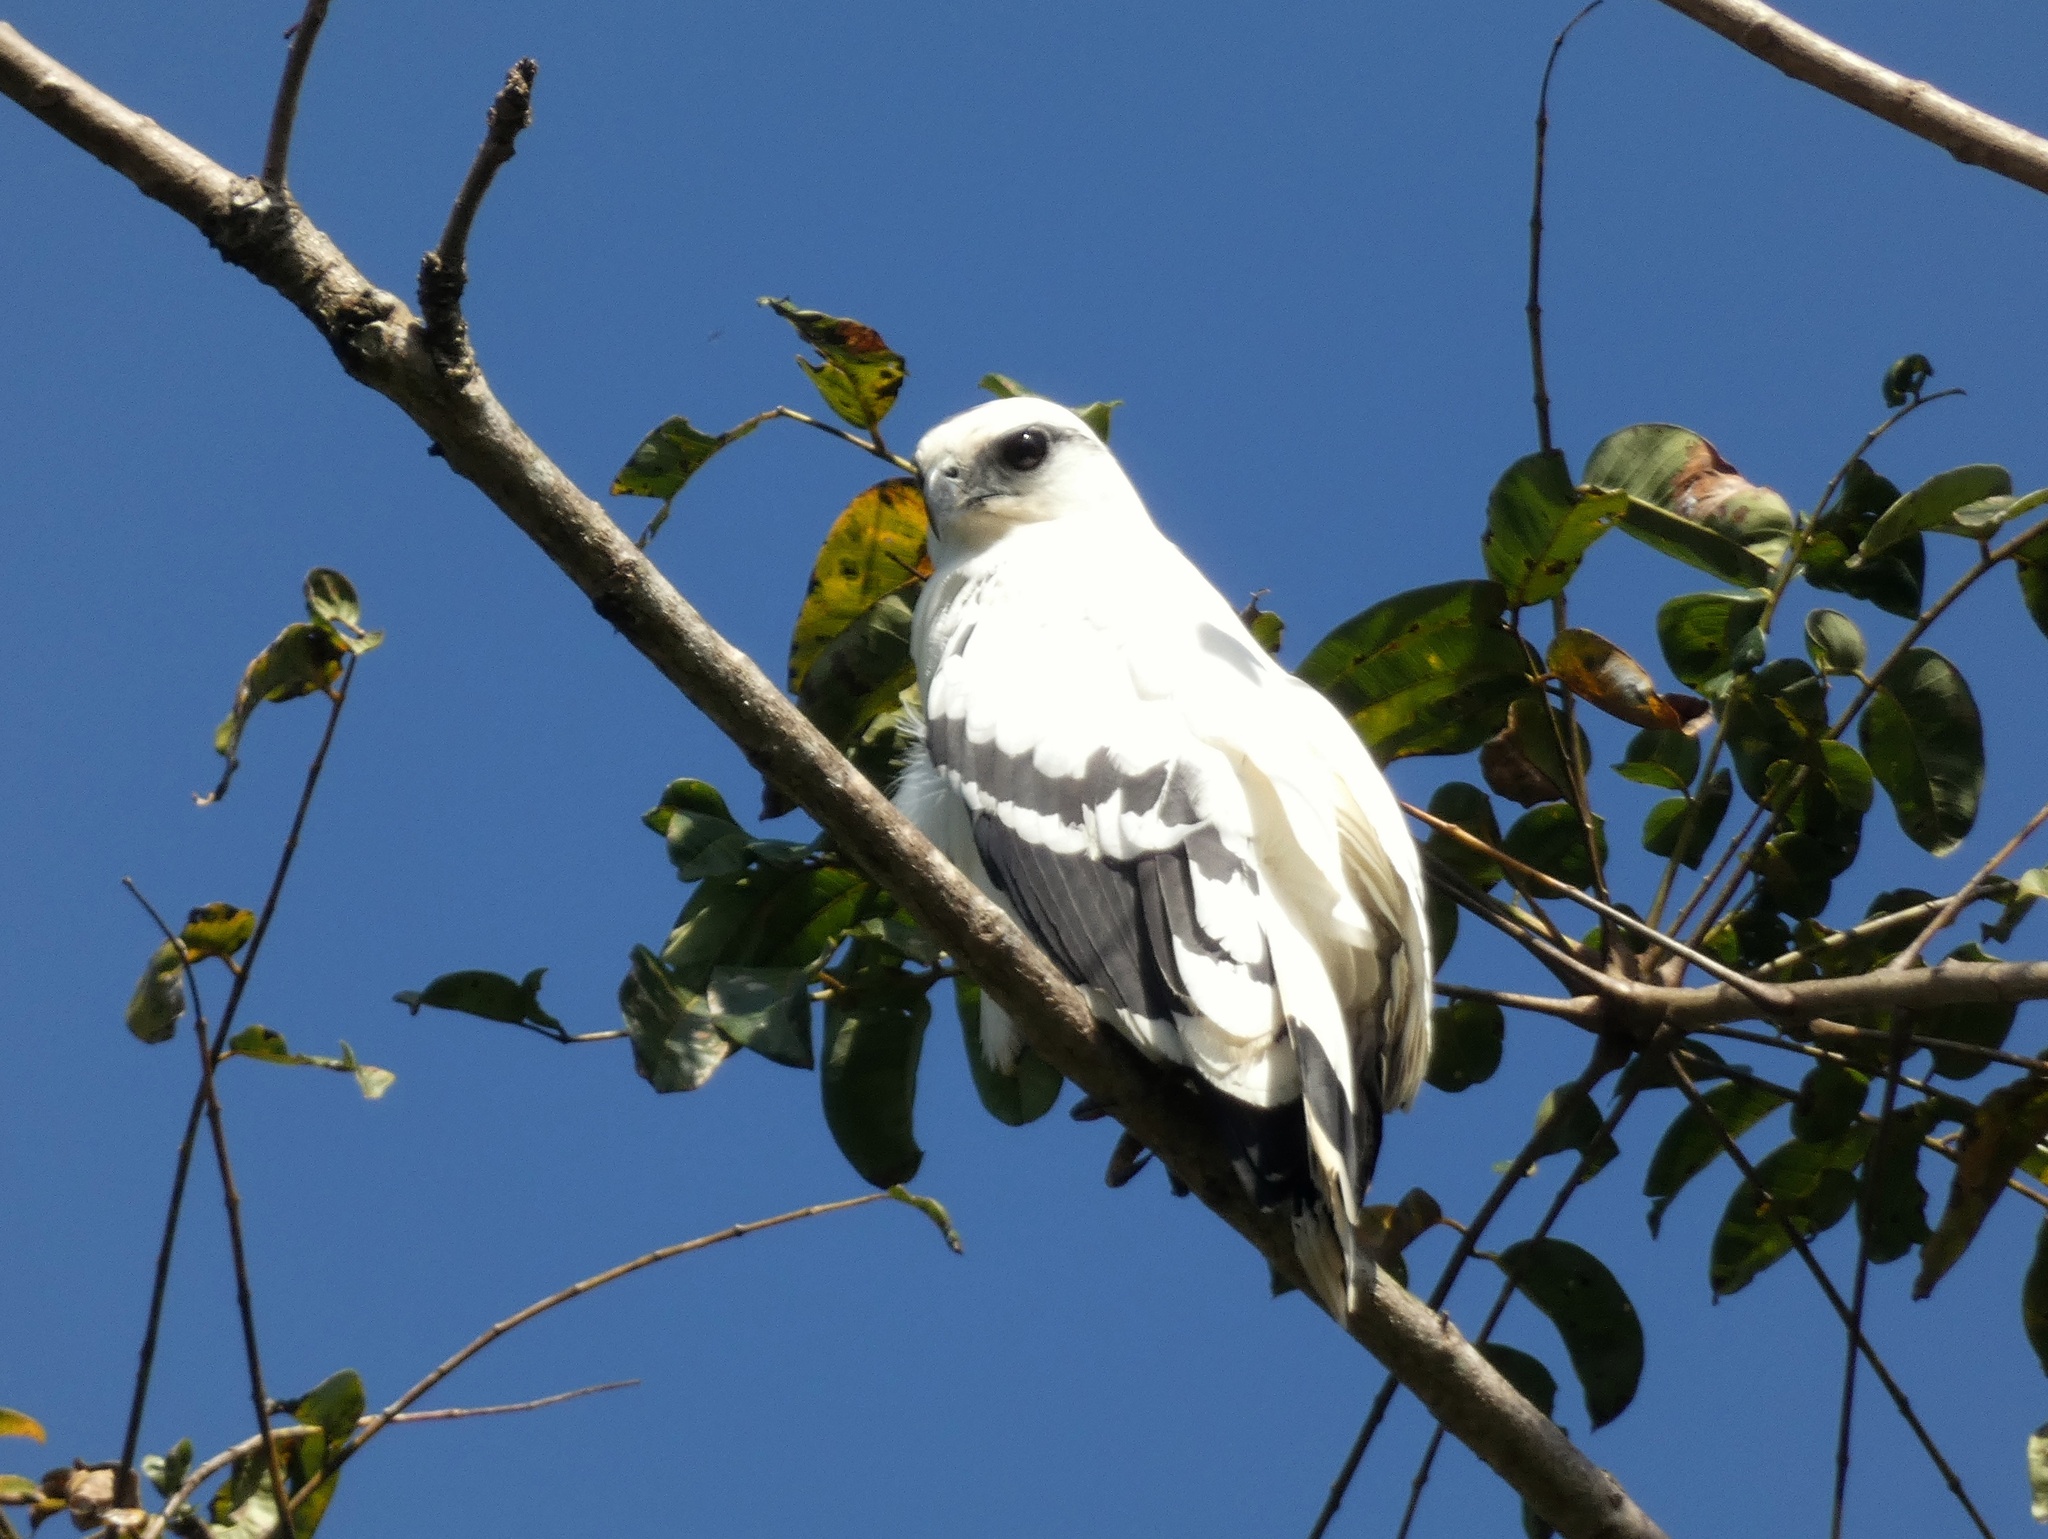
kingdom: Animalia
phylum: Chordata
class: Aves
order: Accipitriformes
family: Accipitridae
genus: Leucopternis
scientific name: Leucopternis albicollis
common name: White hawk
